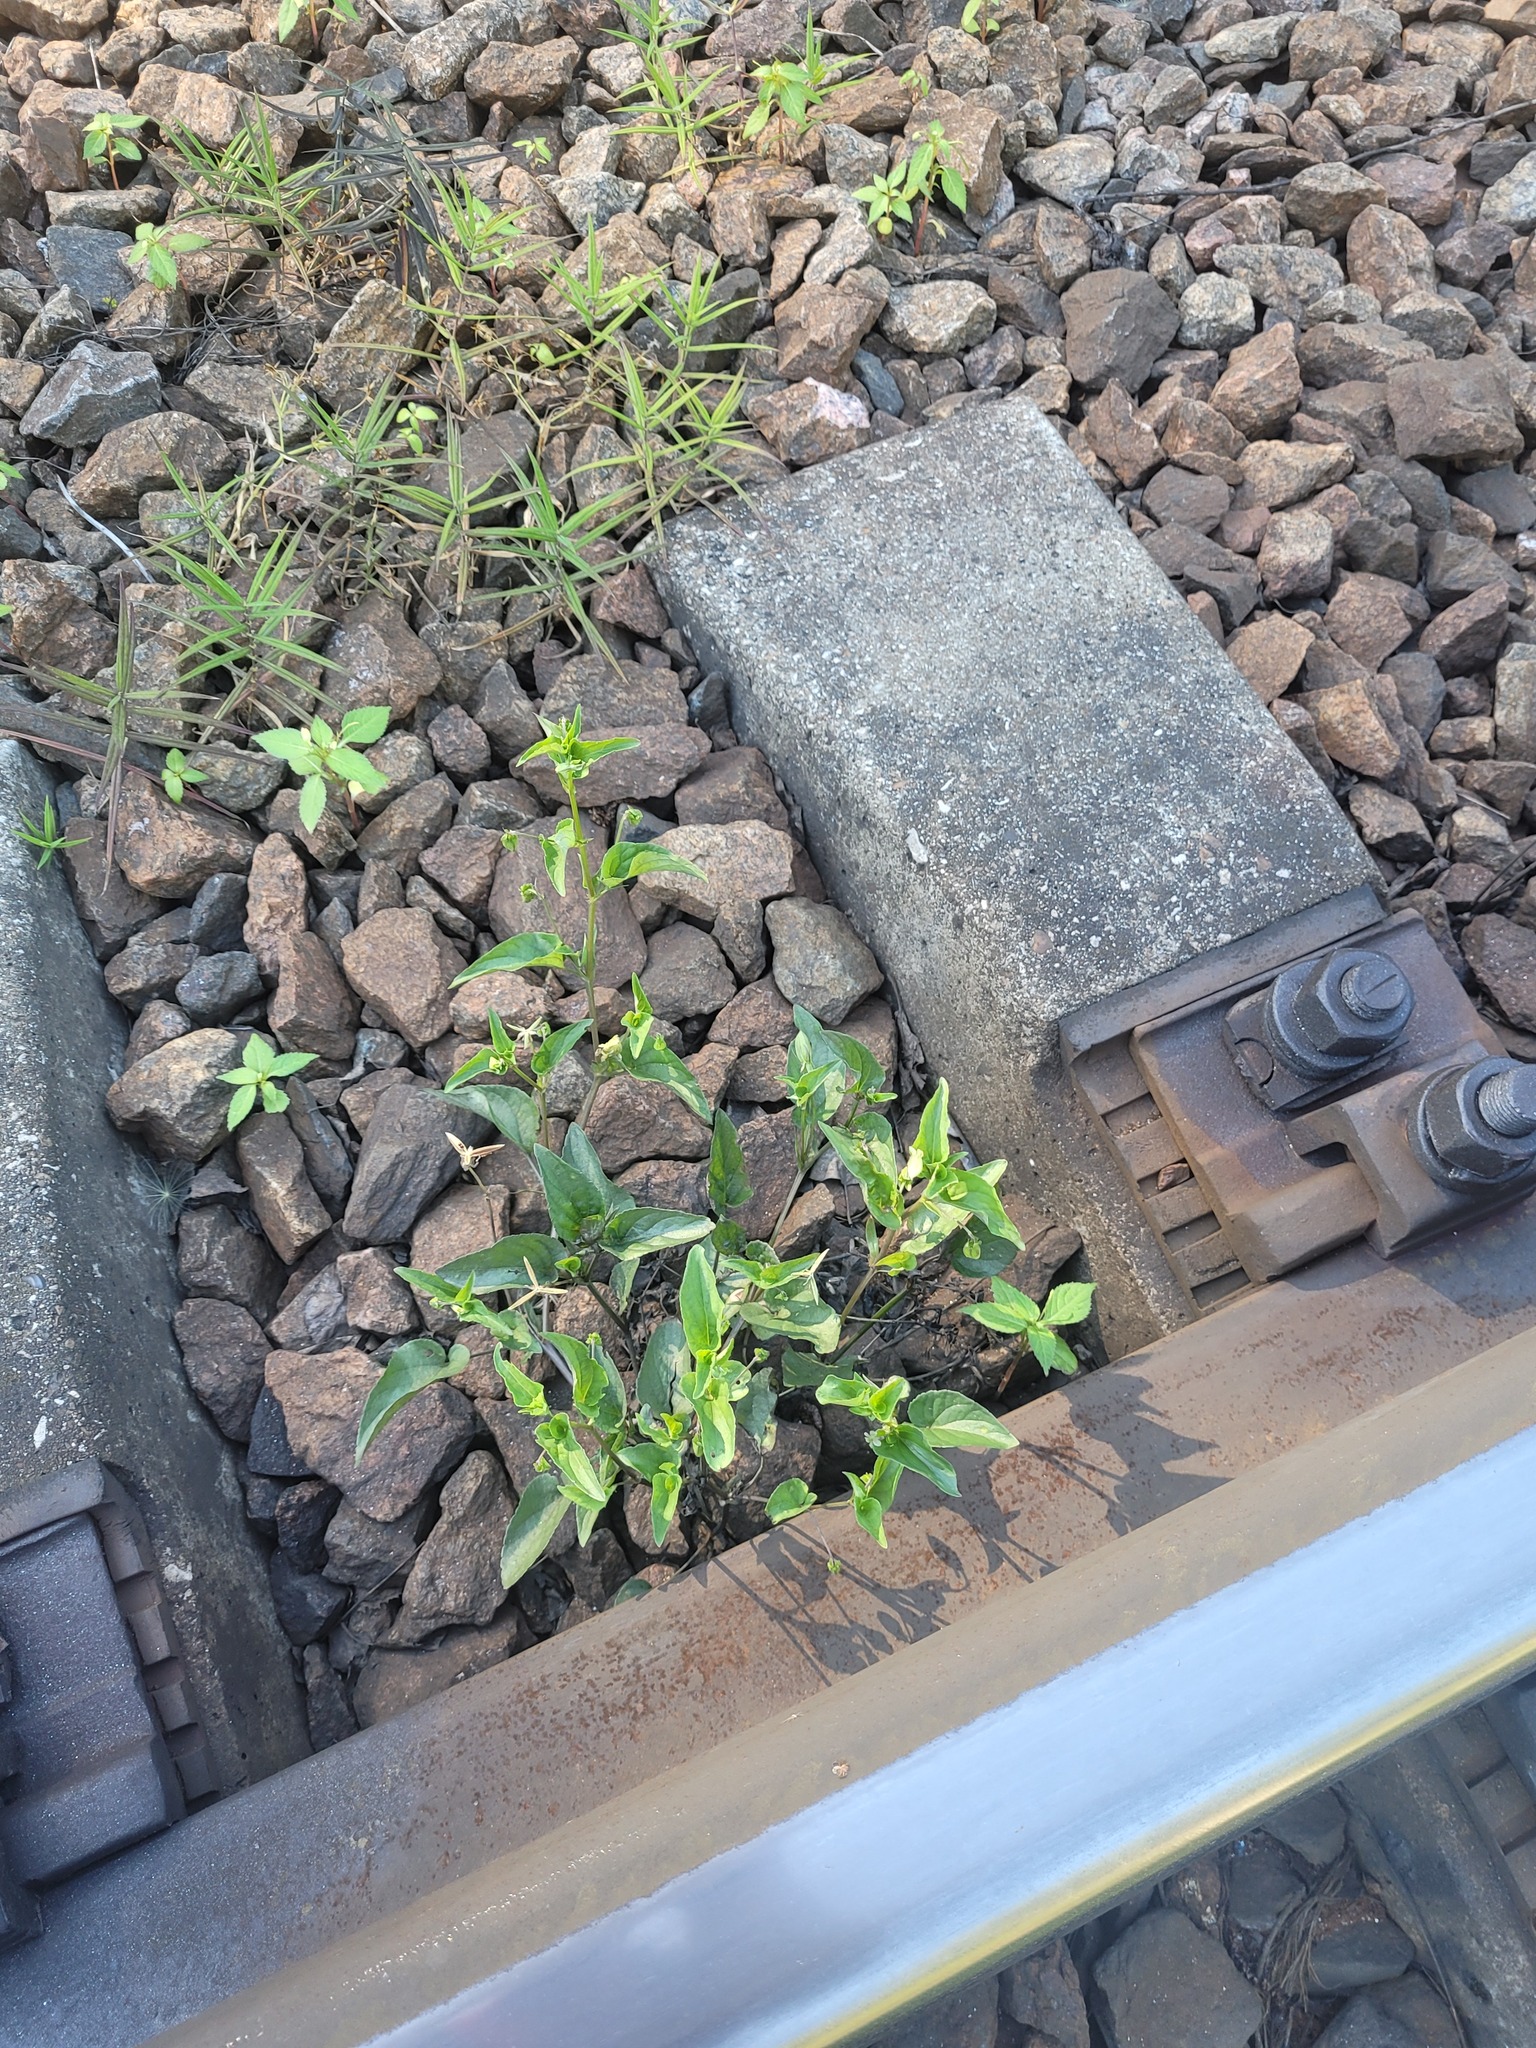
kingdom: Plantae
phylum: Tracheophyta
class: Magnoliopsida
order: Malpighiales
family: Violaceae
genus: Viola
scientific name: Viola canina
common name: Heath dog-violet
